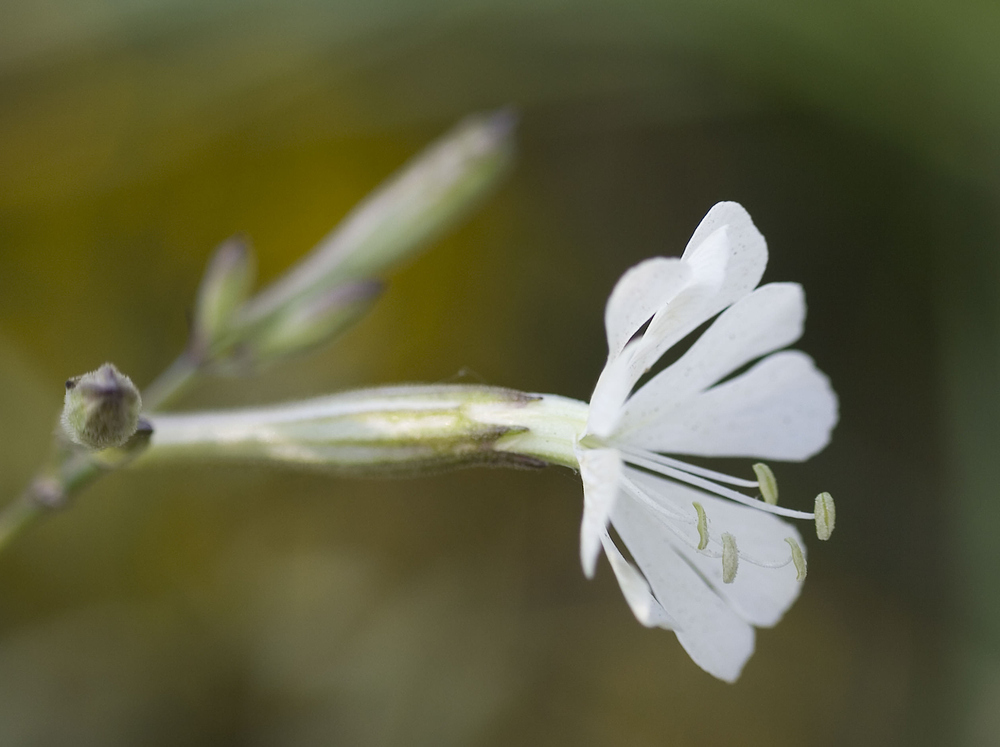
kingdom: Plantae
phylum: Tracheophyta
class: Magnoliopsida
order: Caryophyllales
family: Caryophyllaceae
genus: Silene
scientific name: Silene italica
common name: Italian catchfly
